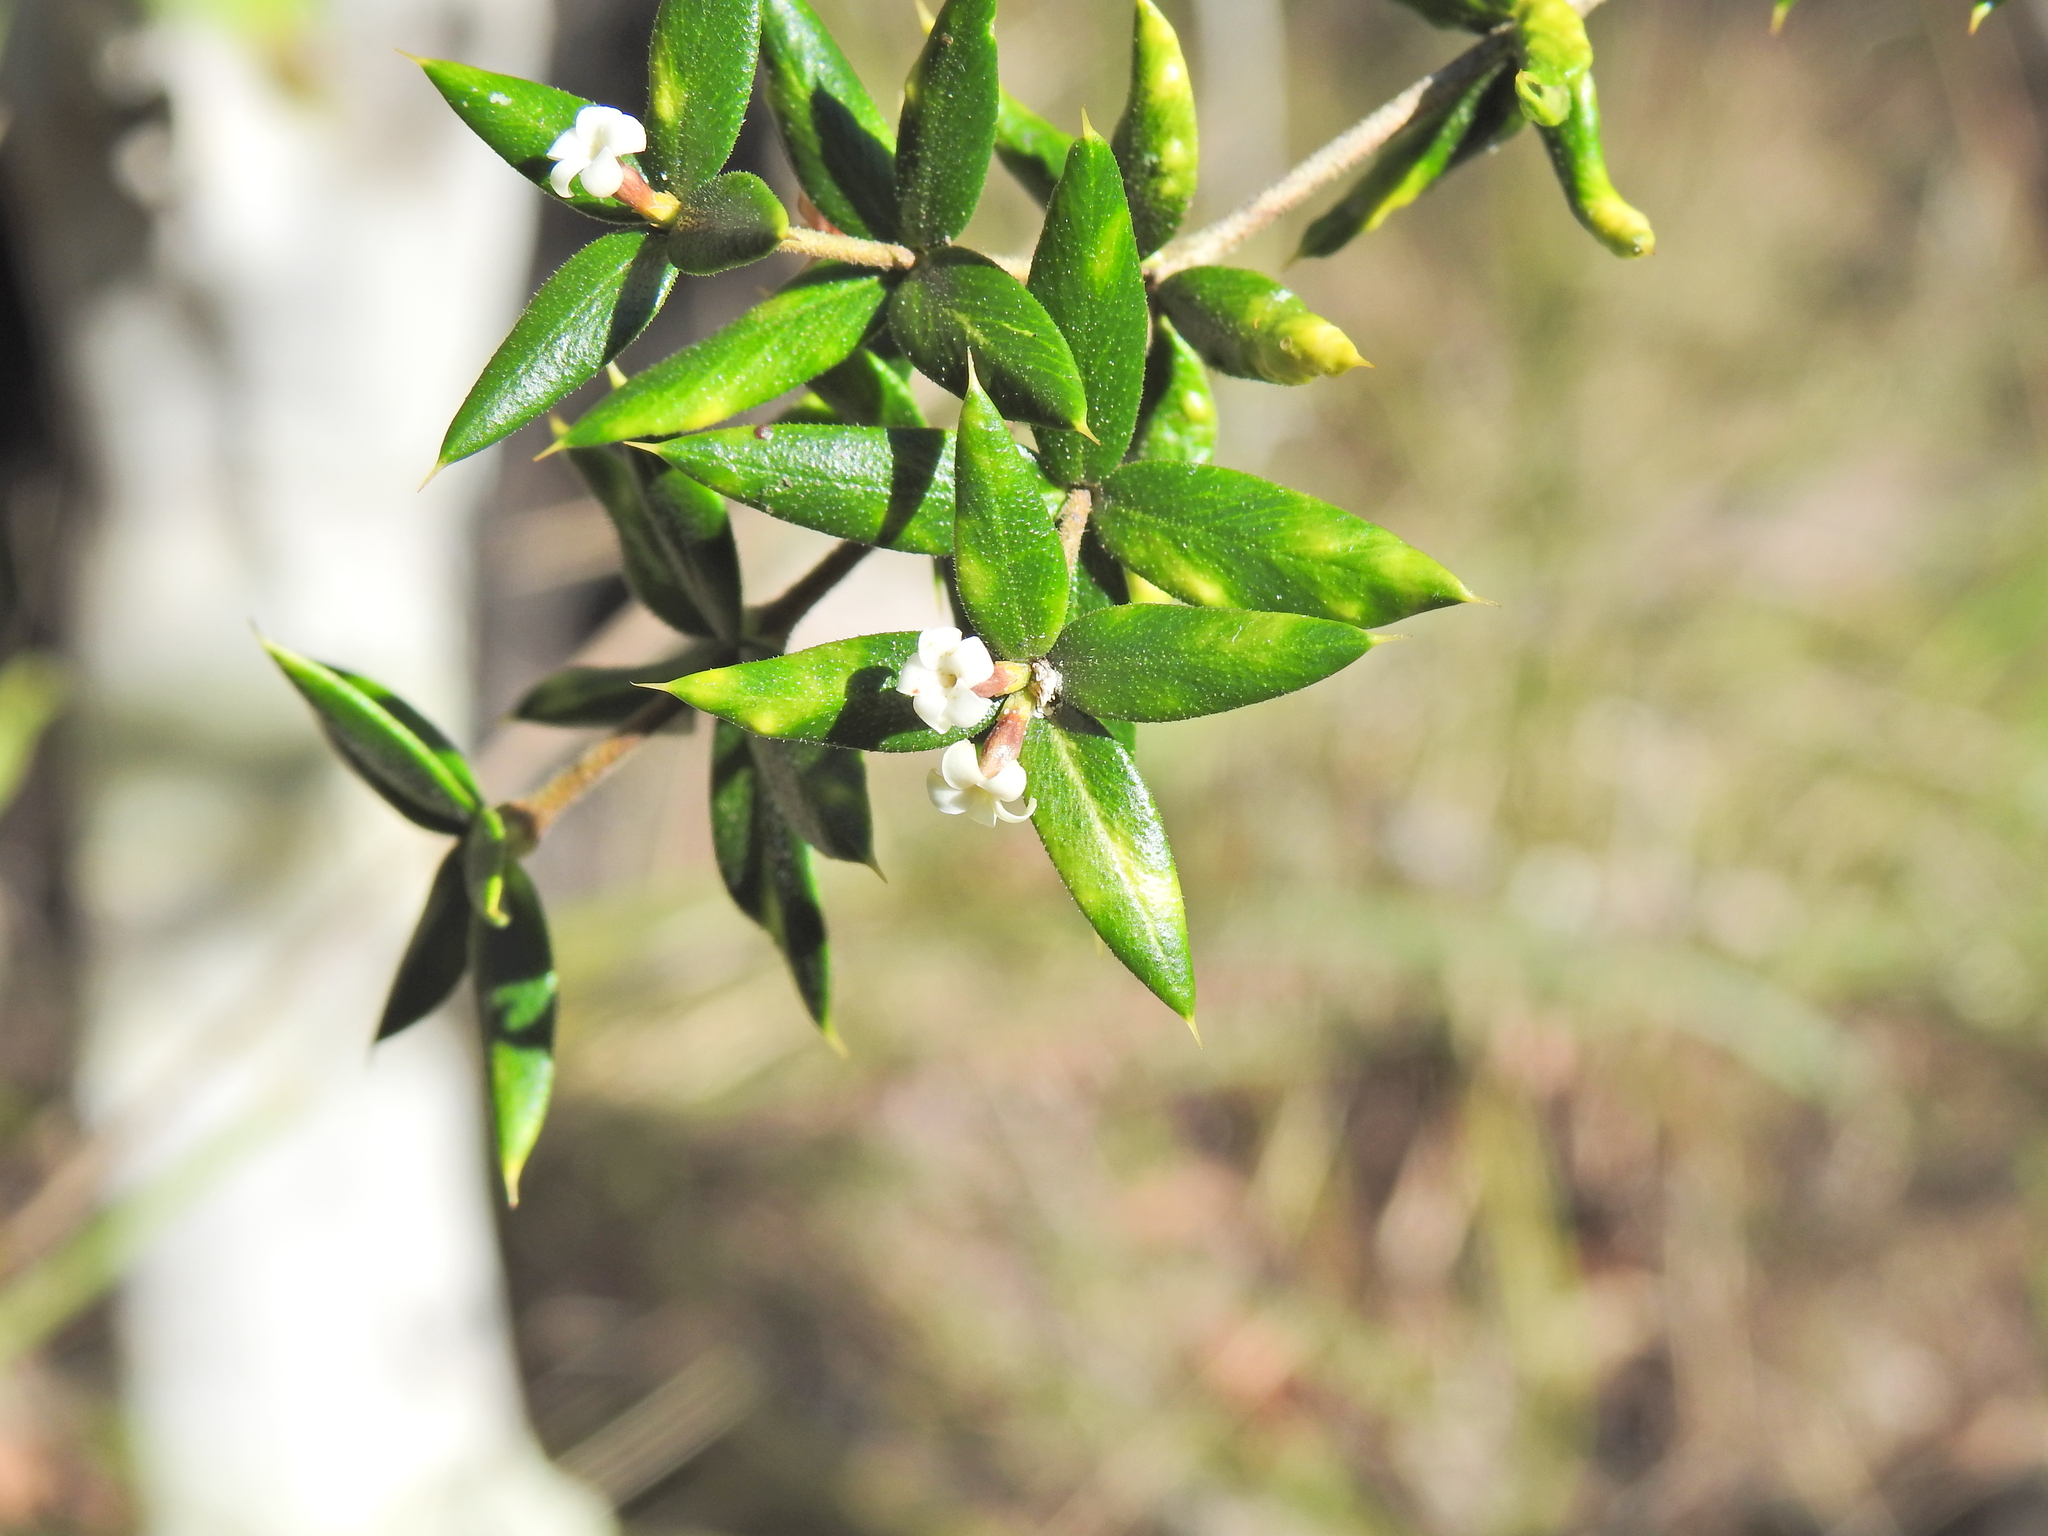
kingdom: Plantae
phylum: Tracheophyta
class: Magnoliopsida
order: Gentianales
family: Apocynaceae
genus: Alyxia
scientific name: Alyxia ruscifolia
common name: Chainfruit
